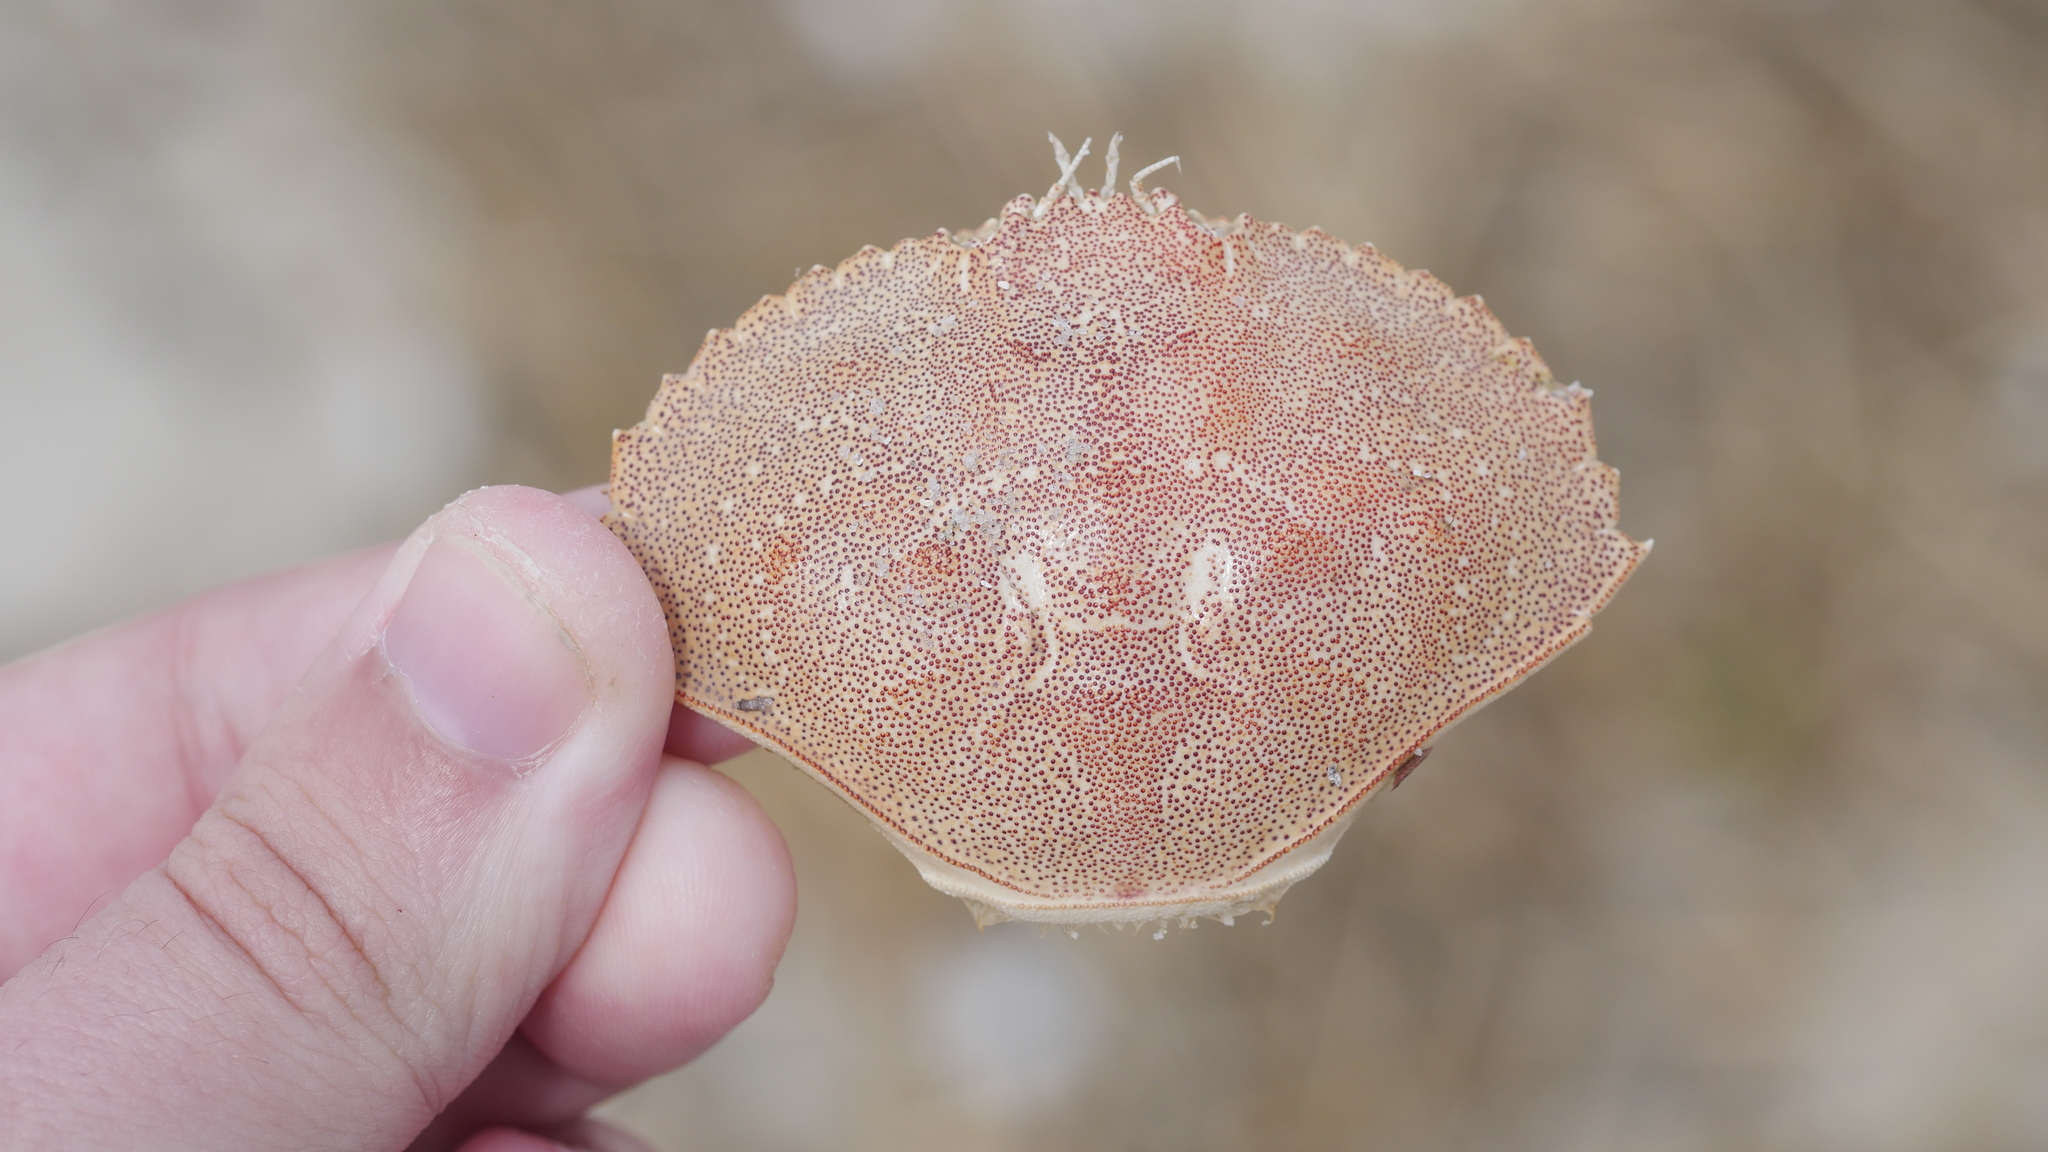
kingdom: Animalia
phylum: Arthropoda
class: Malacostraca
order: Decapoda
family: Cancridae
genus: Cancer
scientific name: Cancer irroratus
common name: Atlantic rock crab
